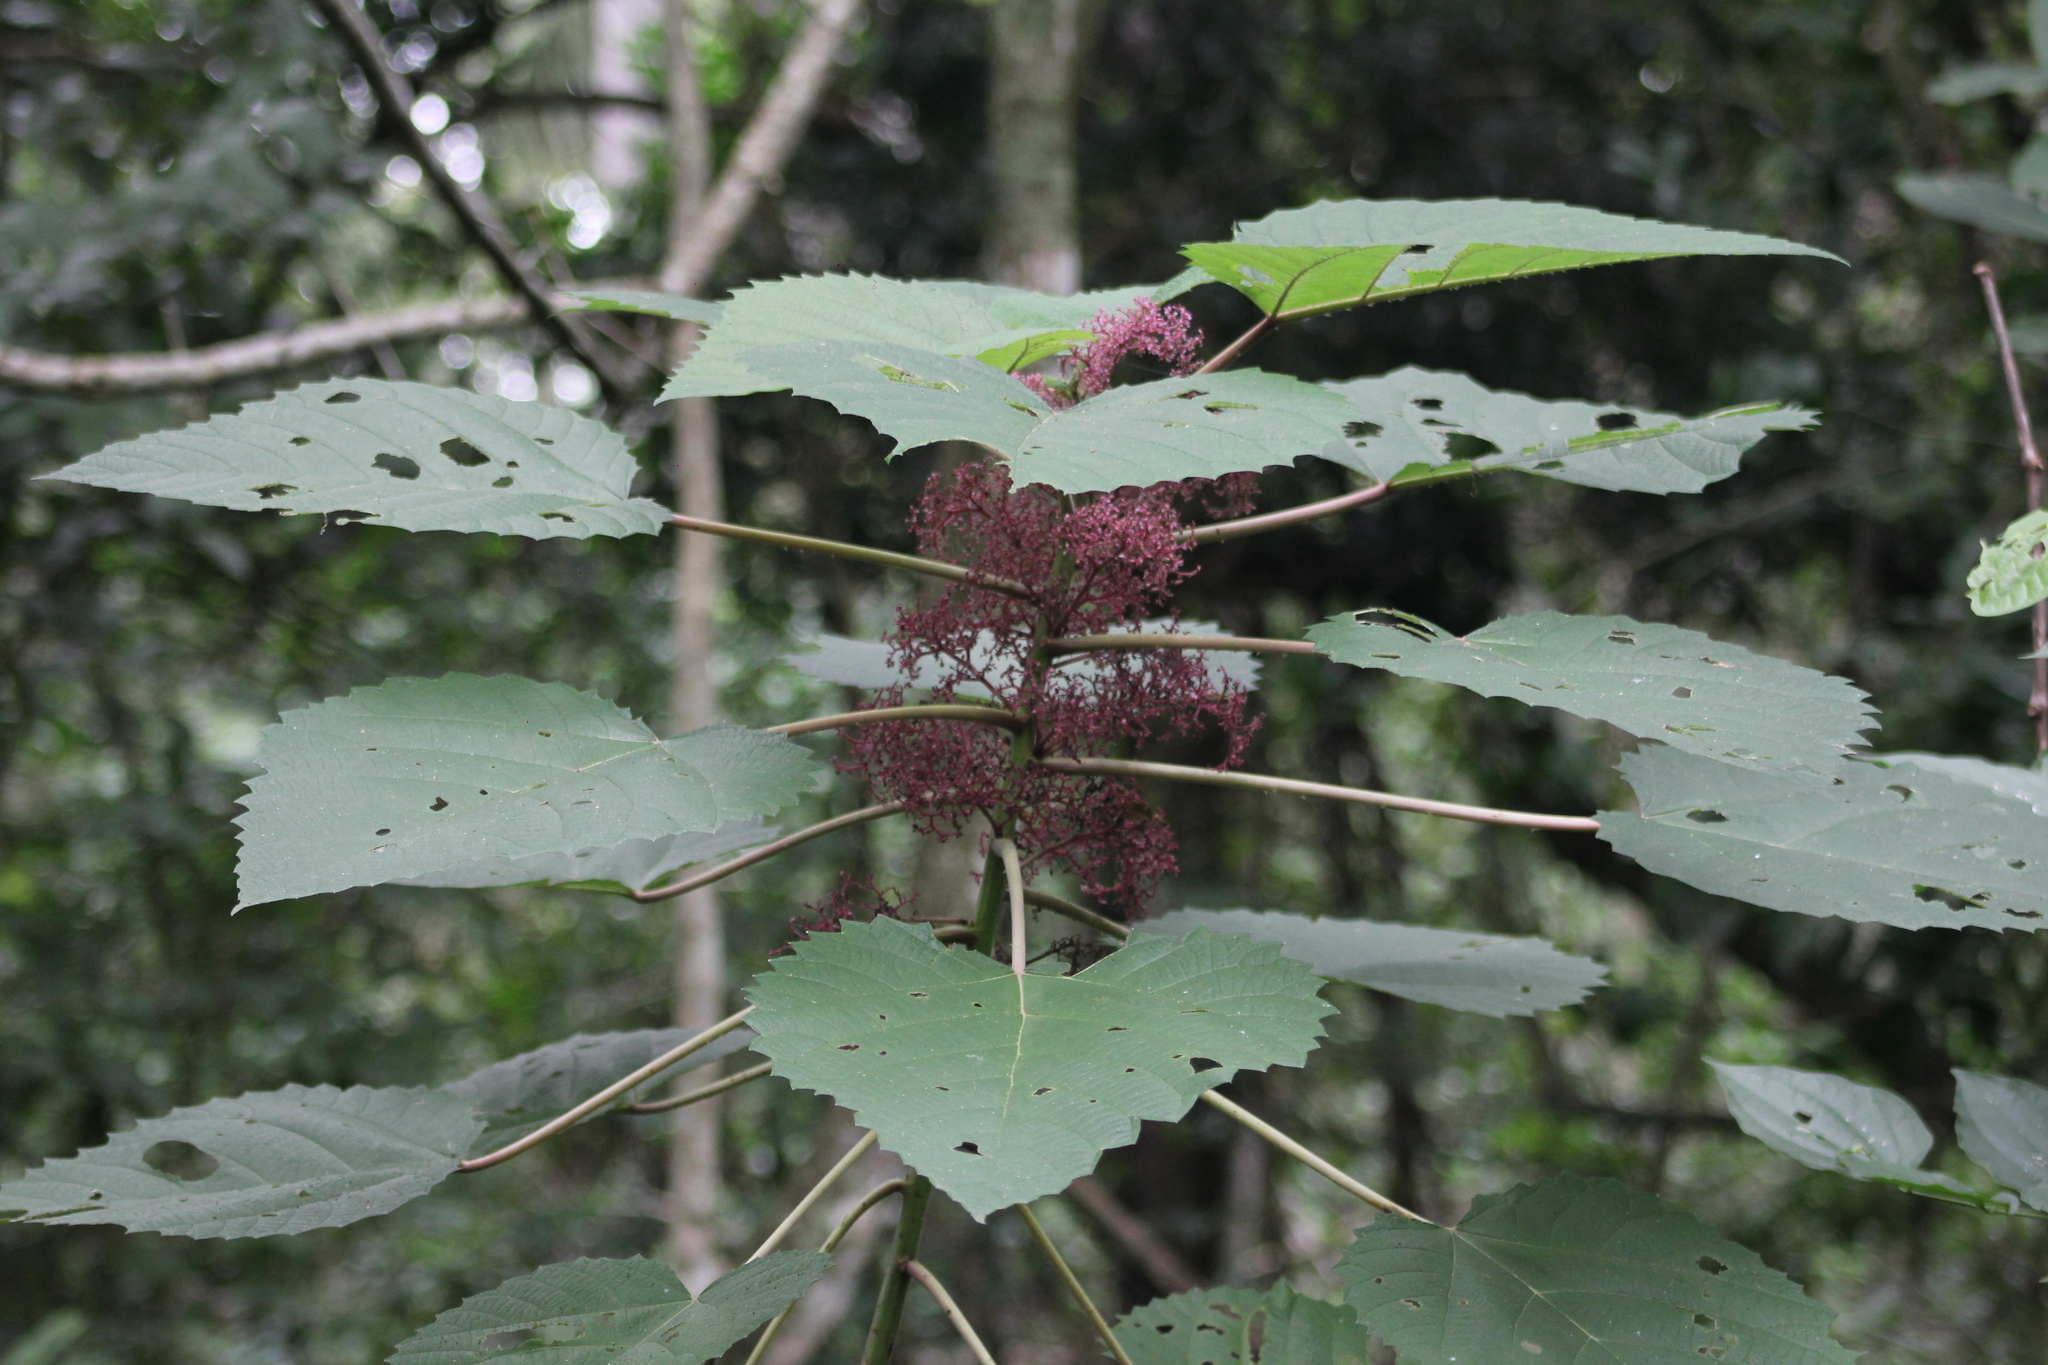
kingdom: Plantae
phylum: Tracheophyta
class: Magnoliopsida
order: Rosales
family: Urticaceae
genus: Urera
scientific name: Urera baccifera
